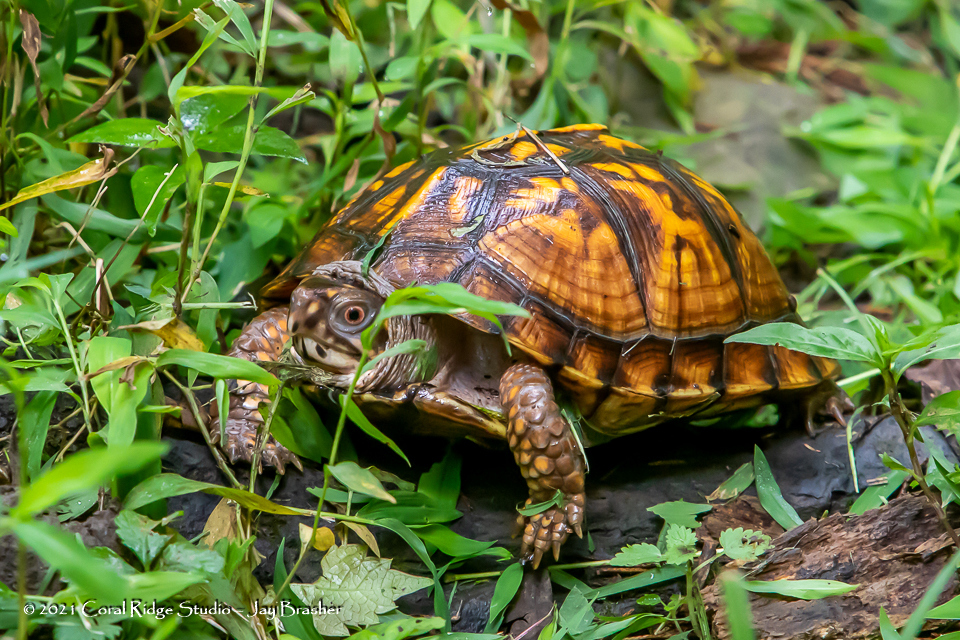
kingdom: Animalia
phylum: Chordata
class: Testudines
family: Emydidae
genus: Terrapene
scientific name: Terrapene carolina
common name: Common box turtle
